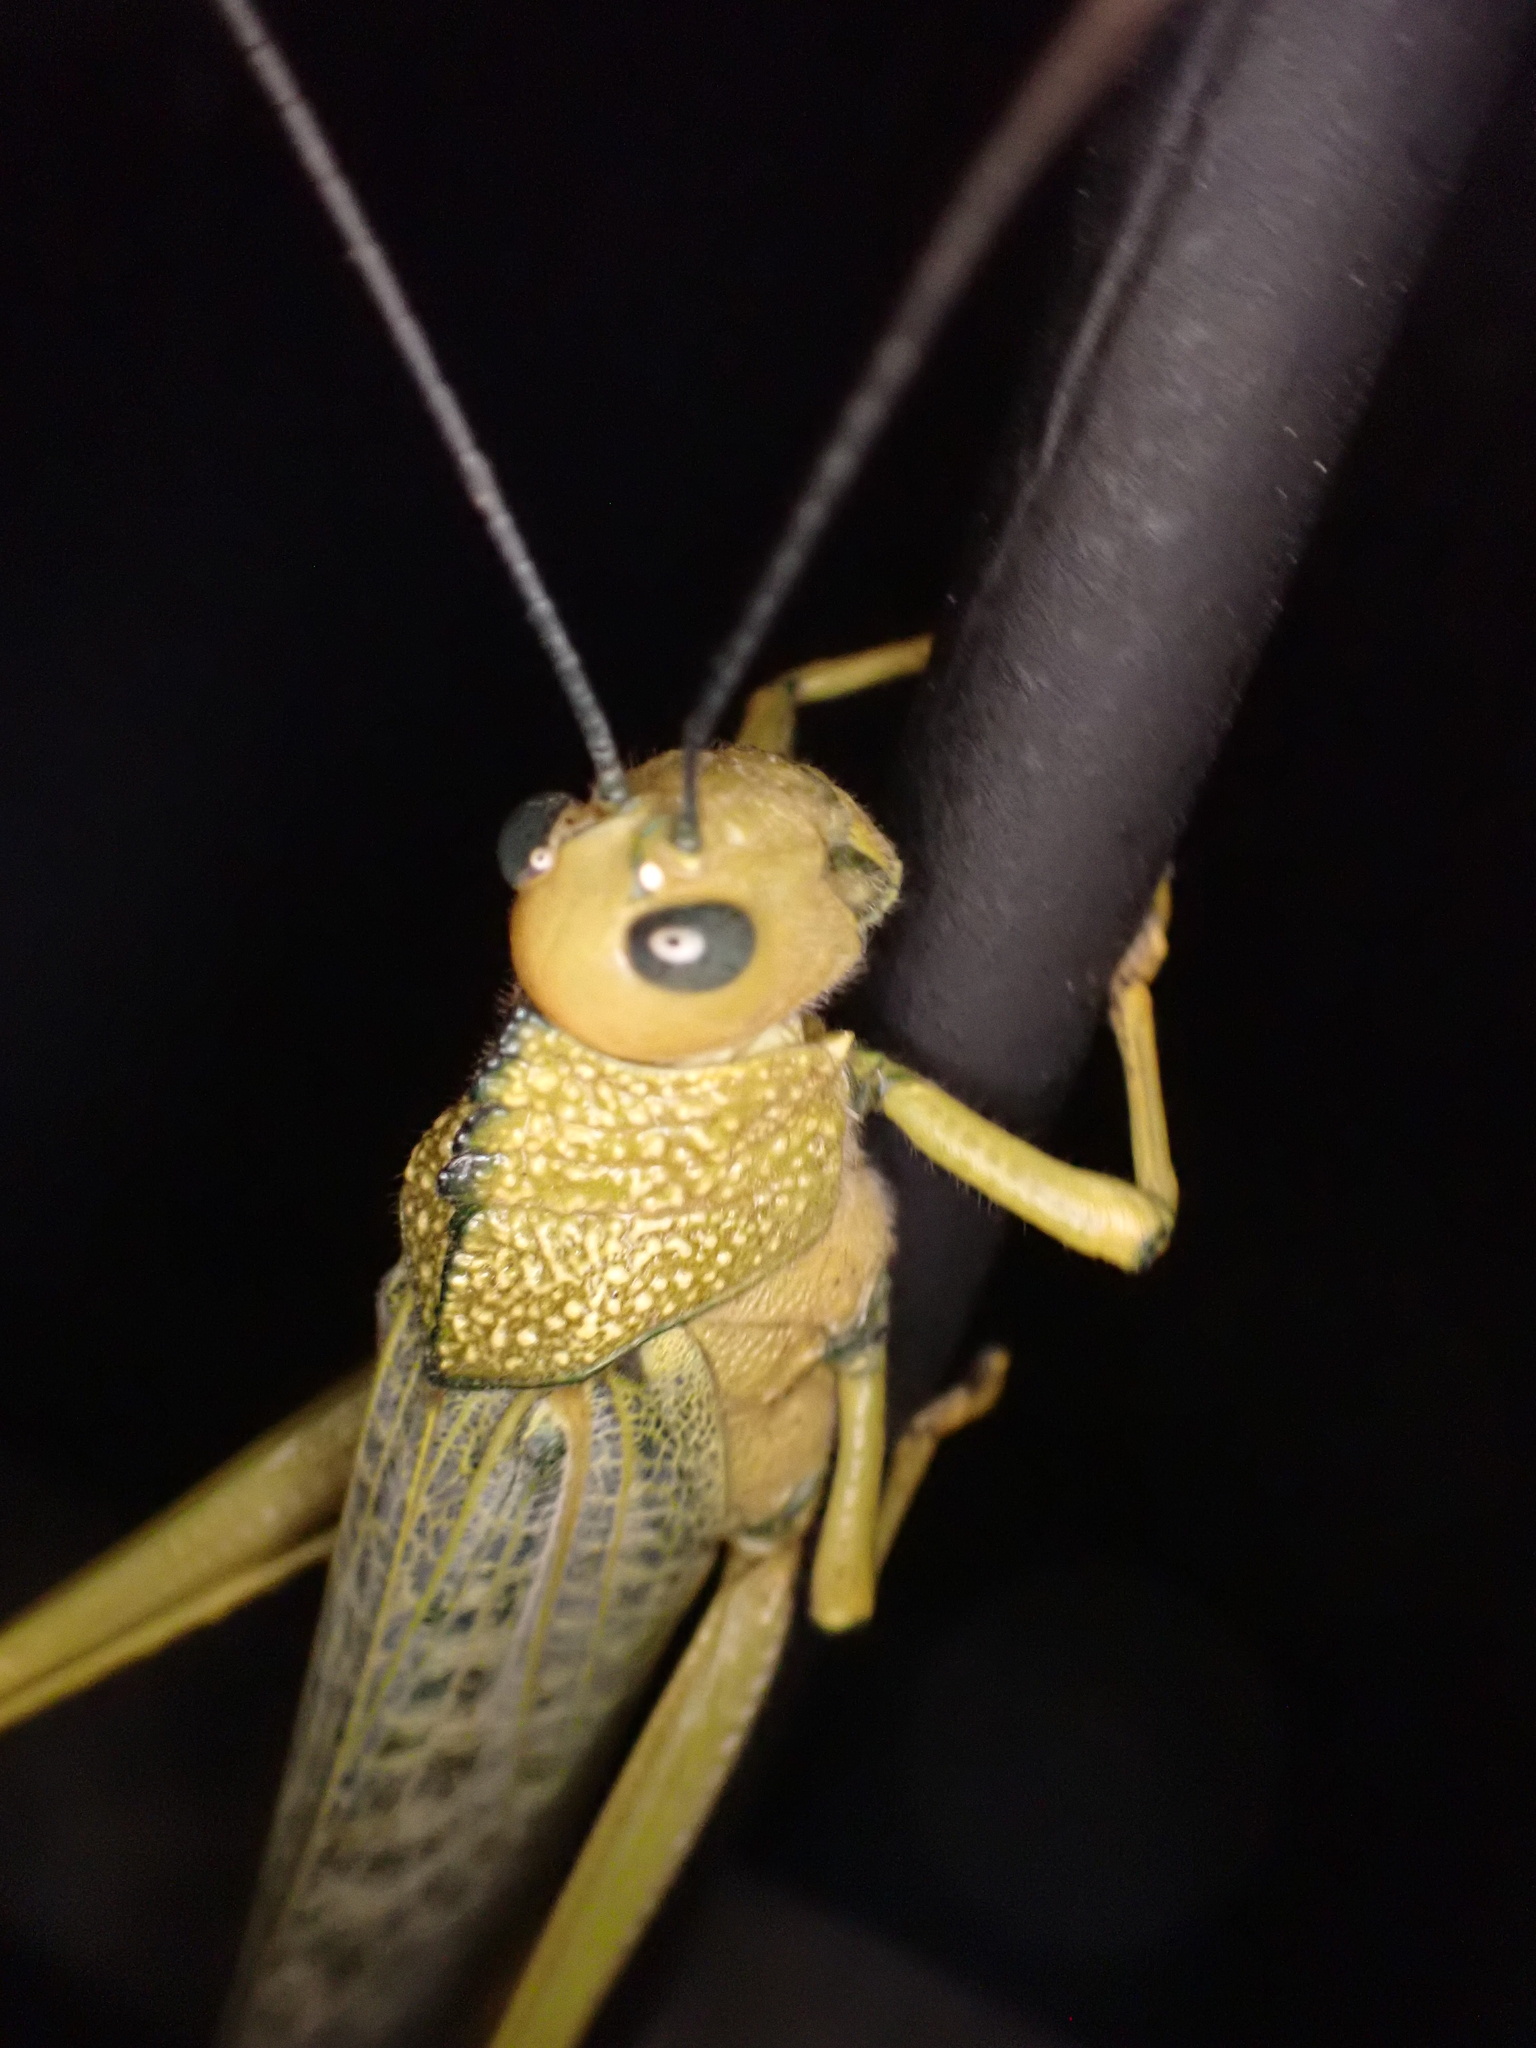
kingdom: Animalia
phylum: Arthropoda
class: Insecta
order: Orthoptera
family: Romaleidae
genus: Tropidacris
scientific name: Tropidacris cristata
